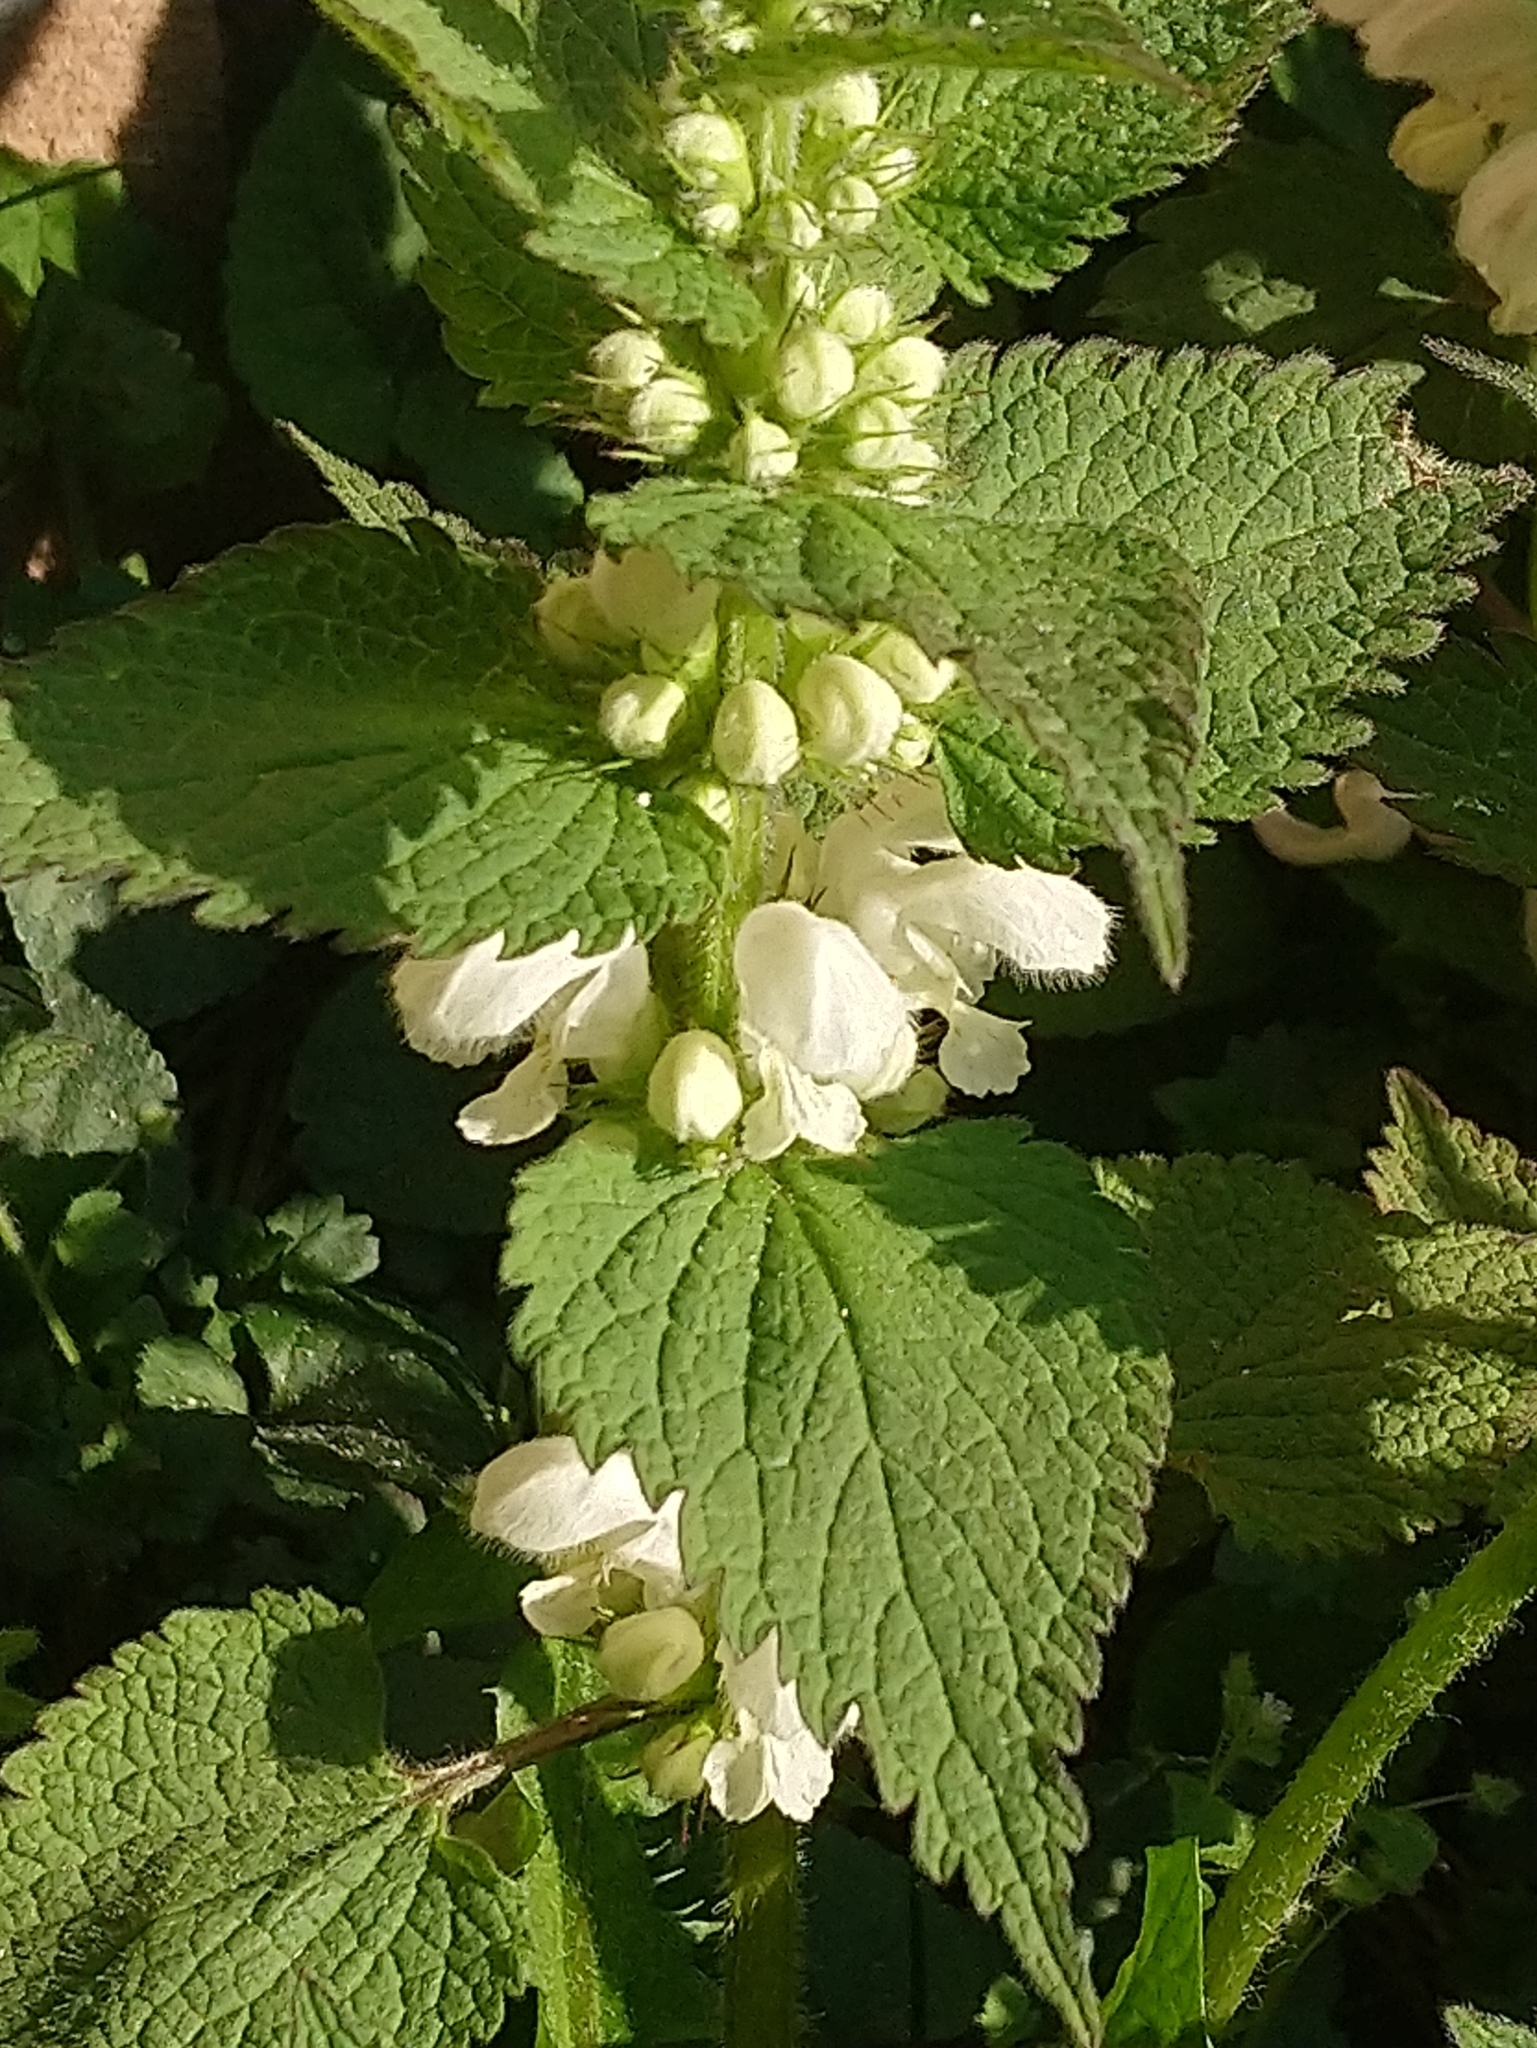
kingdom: Plantae
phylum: Tracheophyta
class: Magnoliopsida
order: Lamiales
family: Lamiaceae
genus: Lamium
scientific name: Lamium album
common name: White dead-nettle
